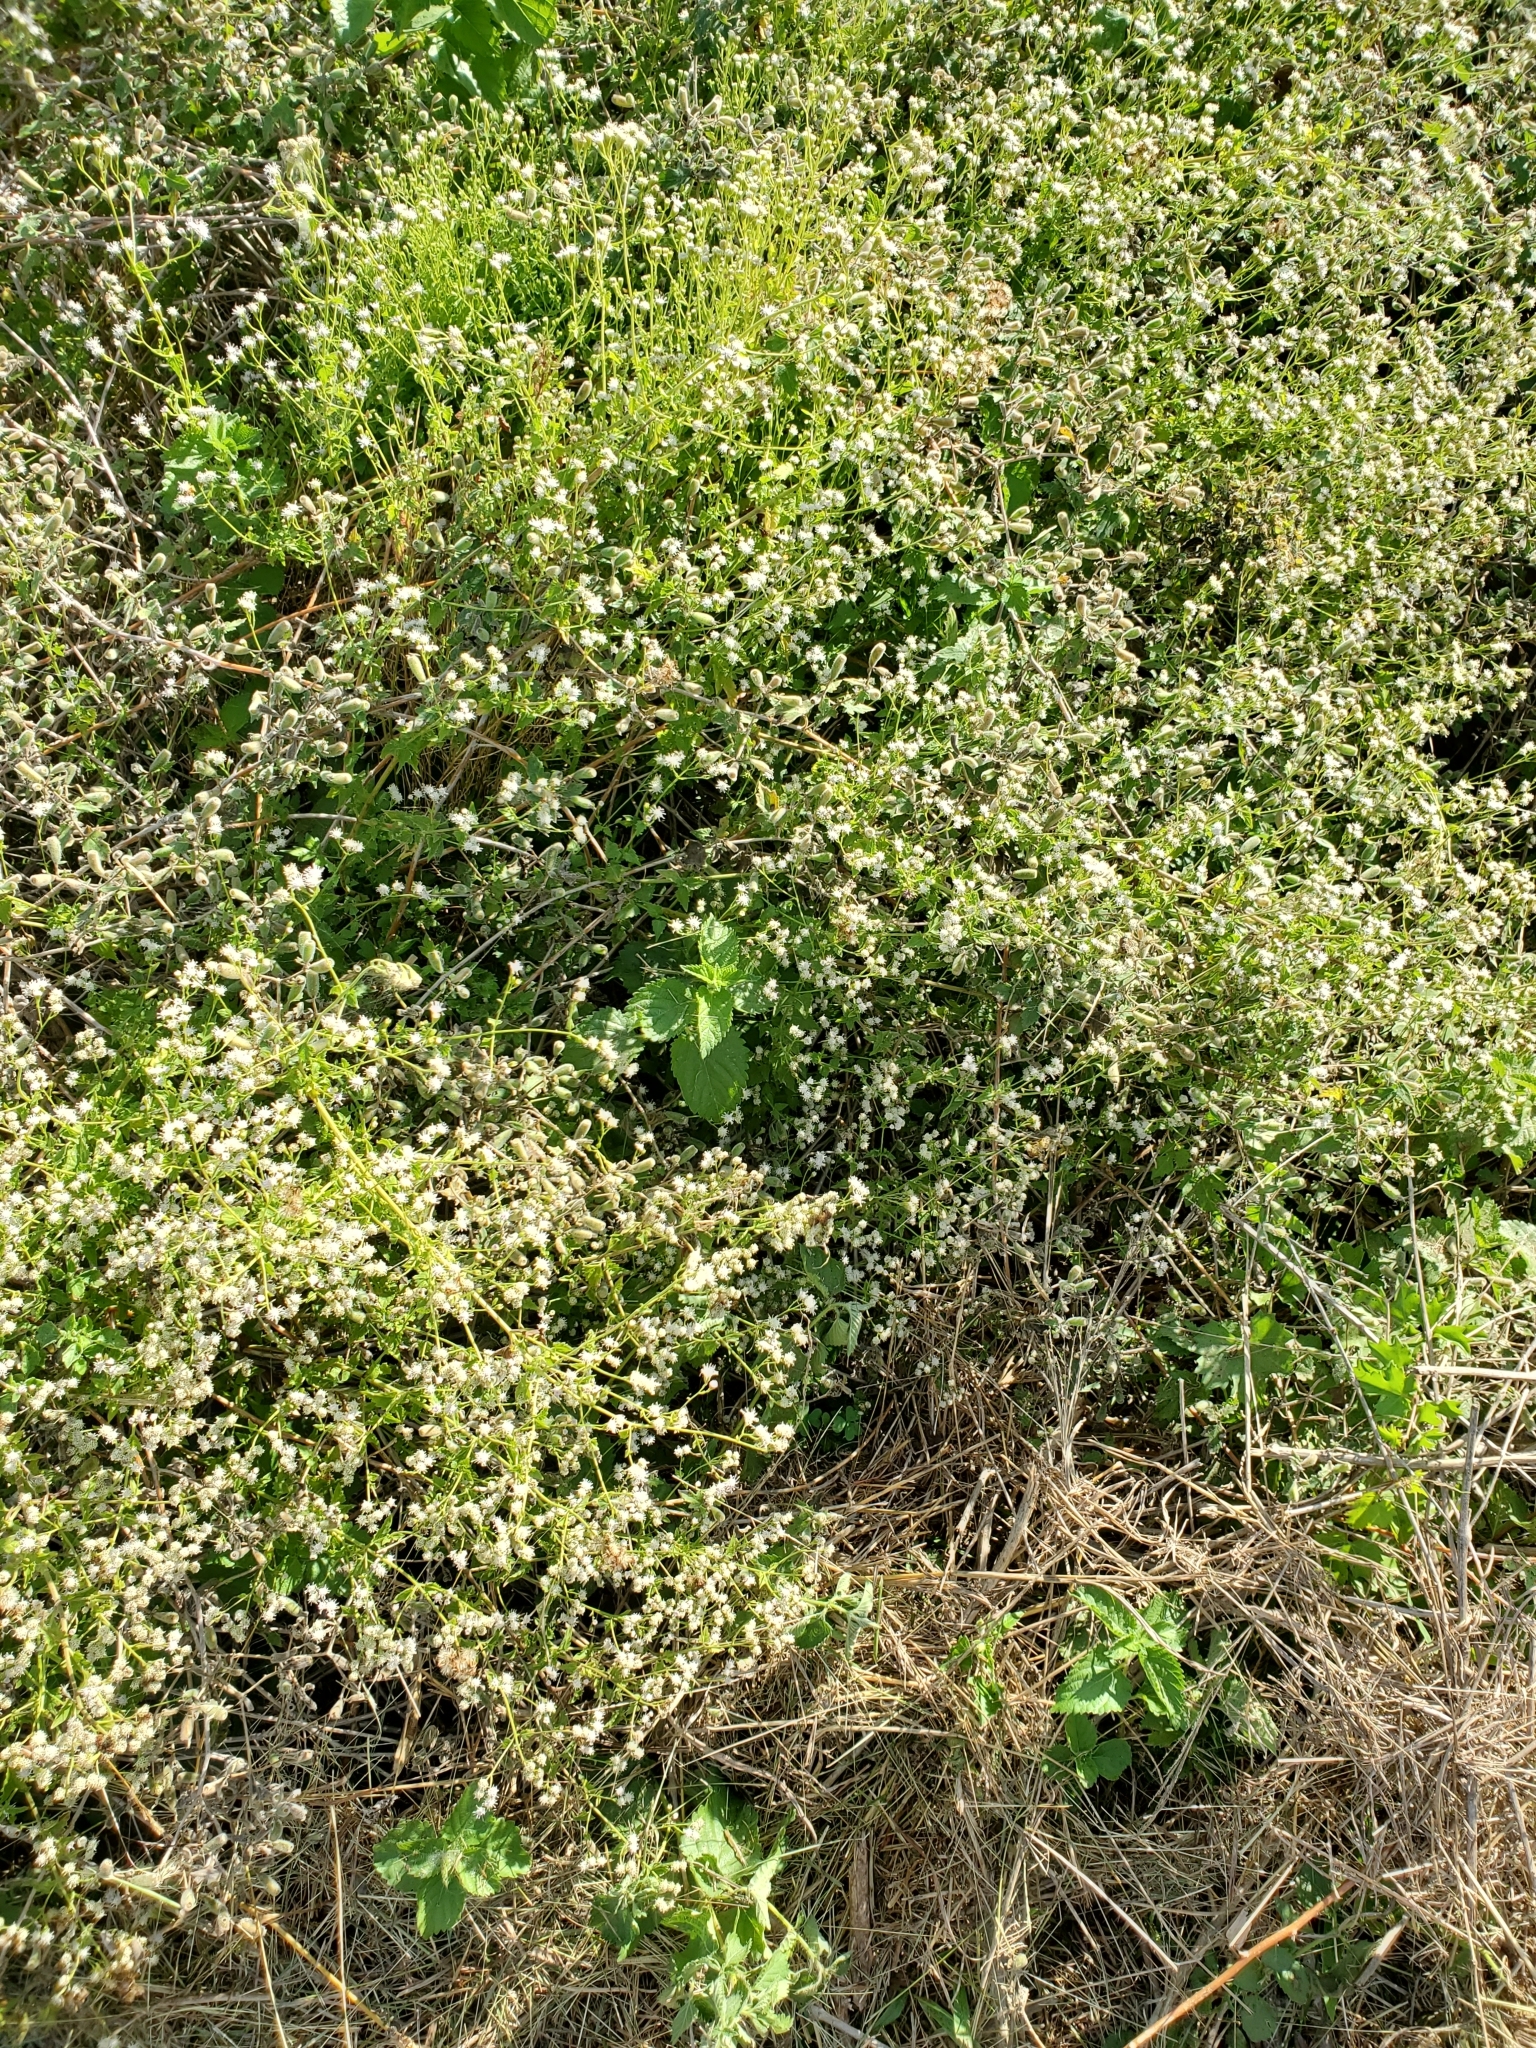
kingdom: Plantae
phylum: Tracheophyta
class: Magnoliopsida
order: Asterales
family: Asteraceae
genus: Fleischmannia
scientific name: Fleischmannia incarnata
